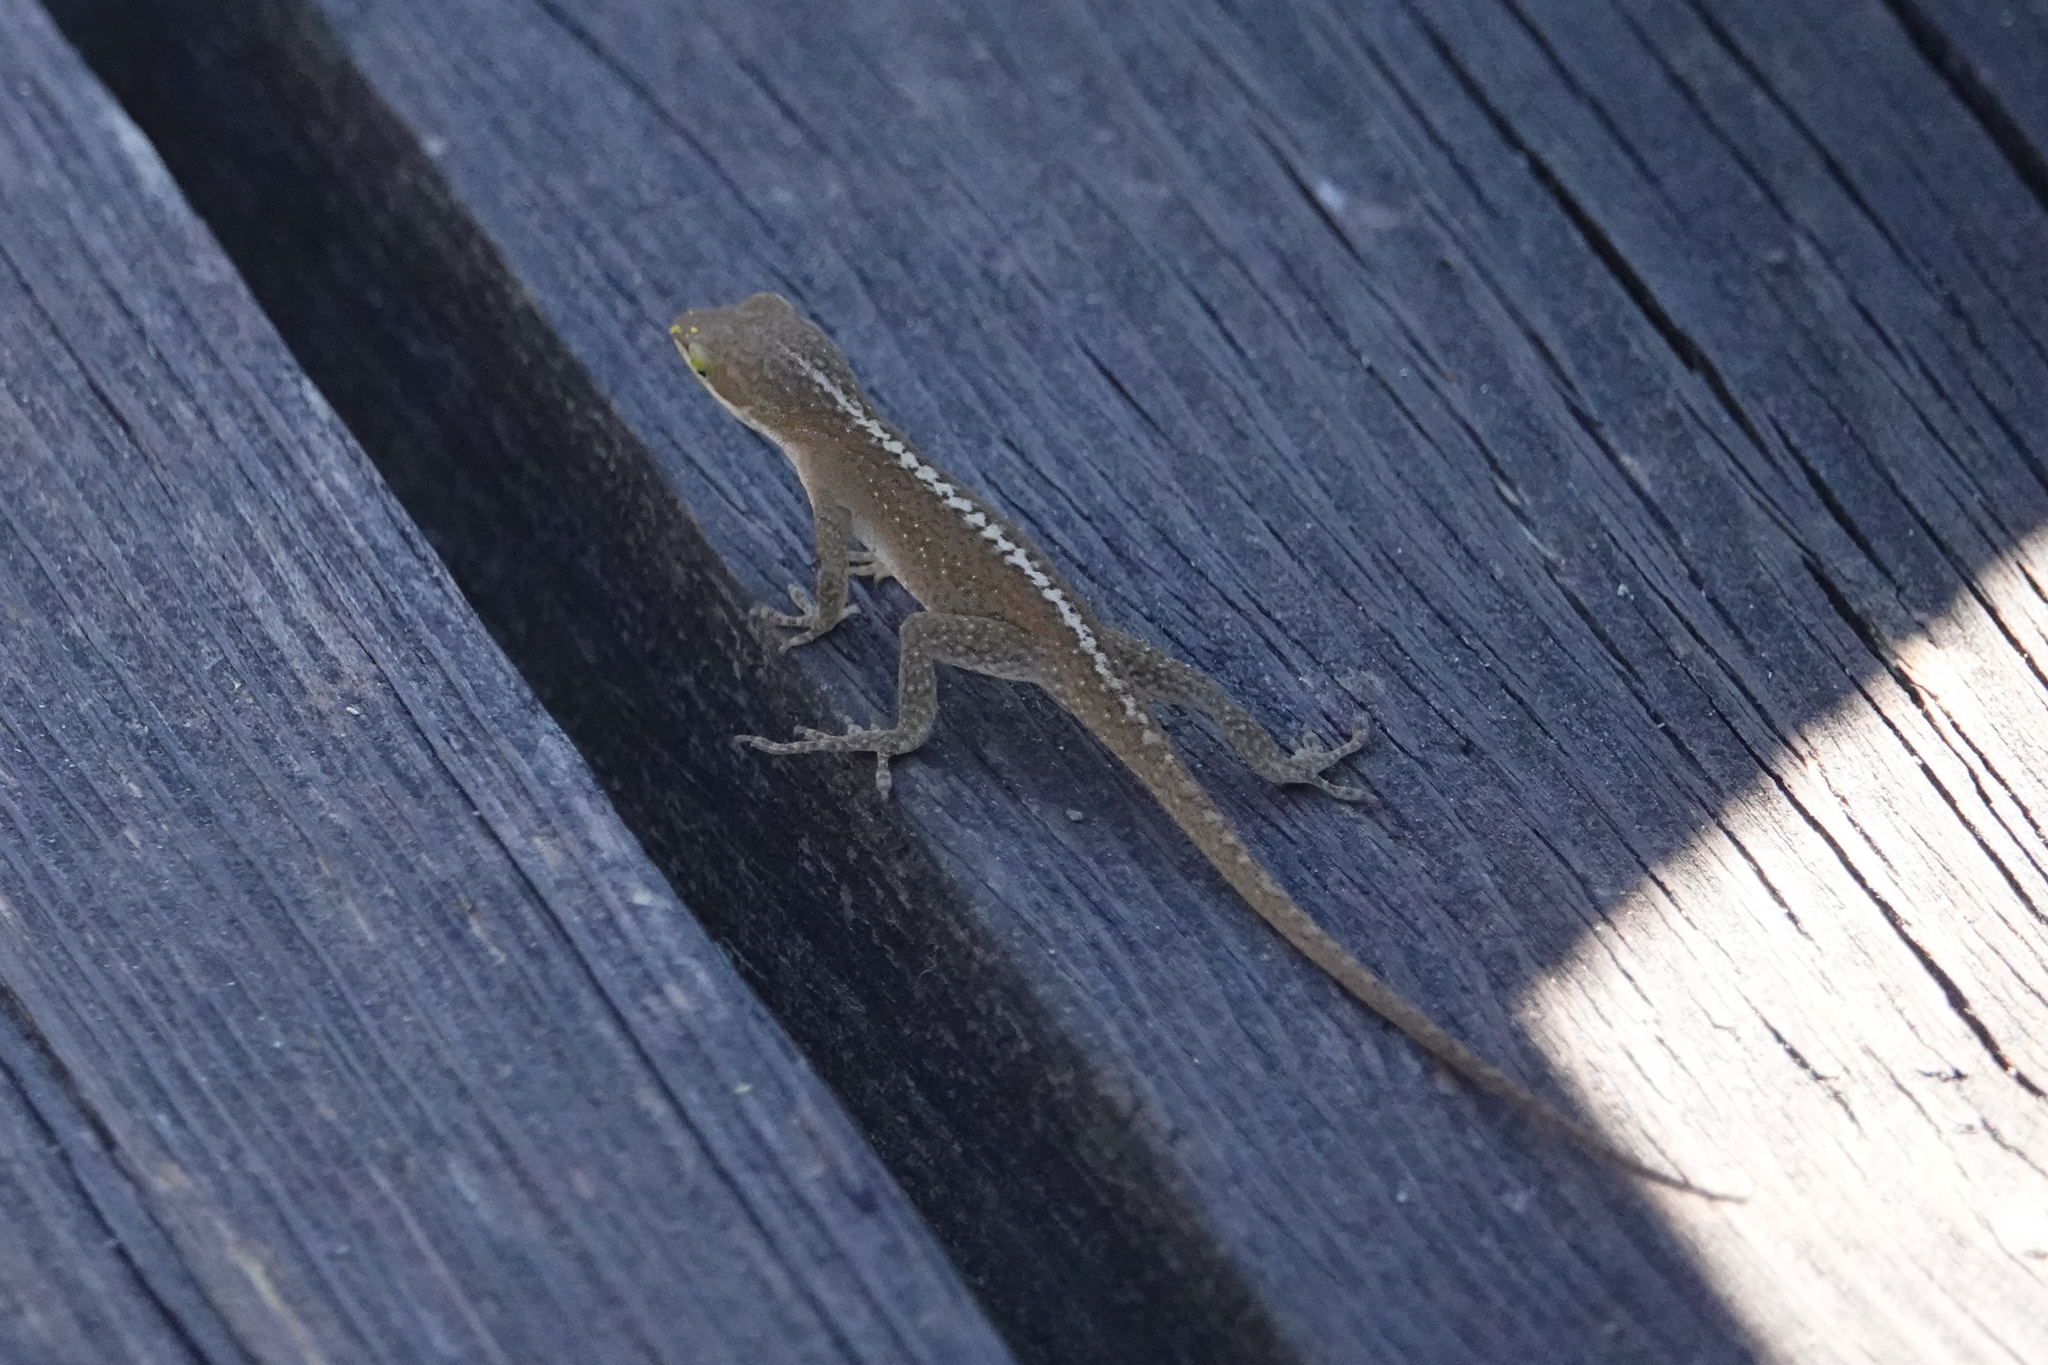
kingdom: Animalia
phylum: Chordata
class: Squamata
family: Dactyloidae
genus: Anolis
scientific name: Anolis carolinensis
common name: Green anole
